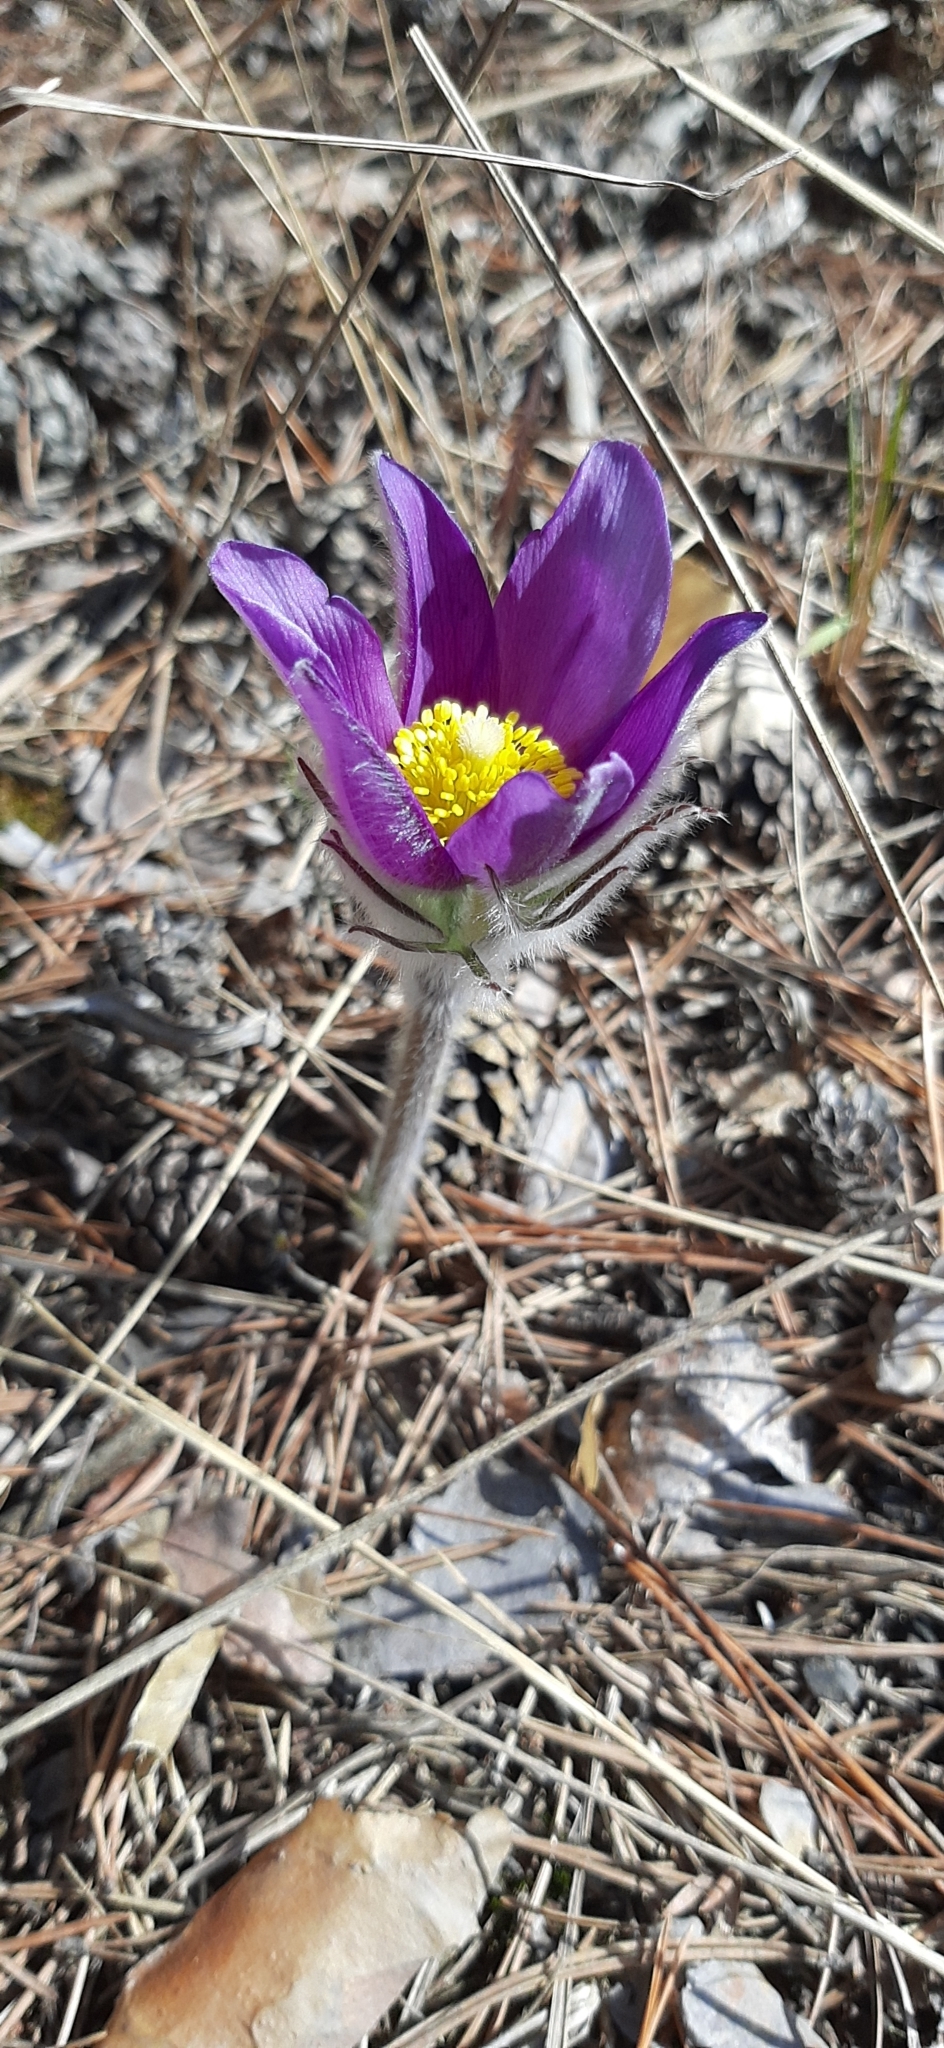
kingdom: Plantae
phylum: Tracheophyta
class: Magnoliopsida
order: Ranunculales
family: Ranunculaceae
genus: Pulsatilla
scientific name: Pulsatilla patens
